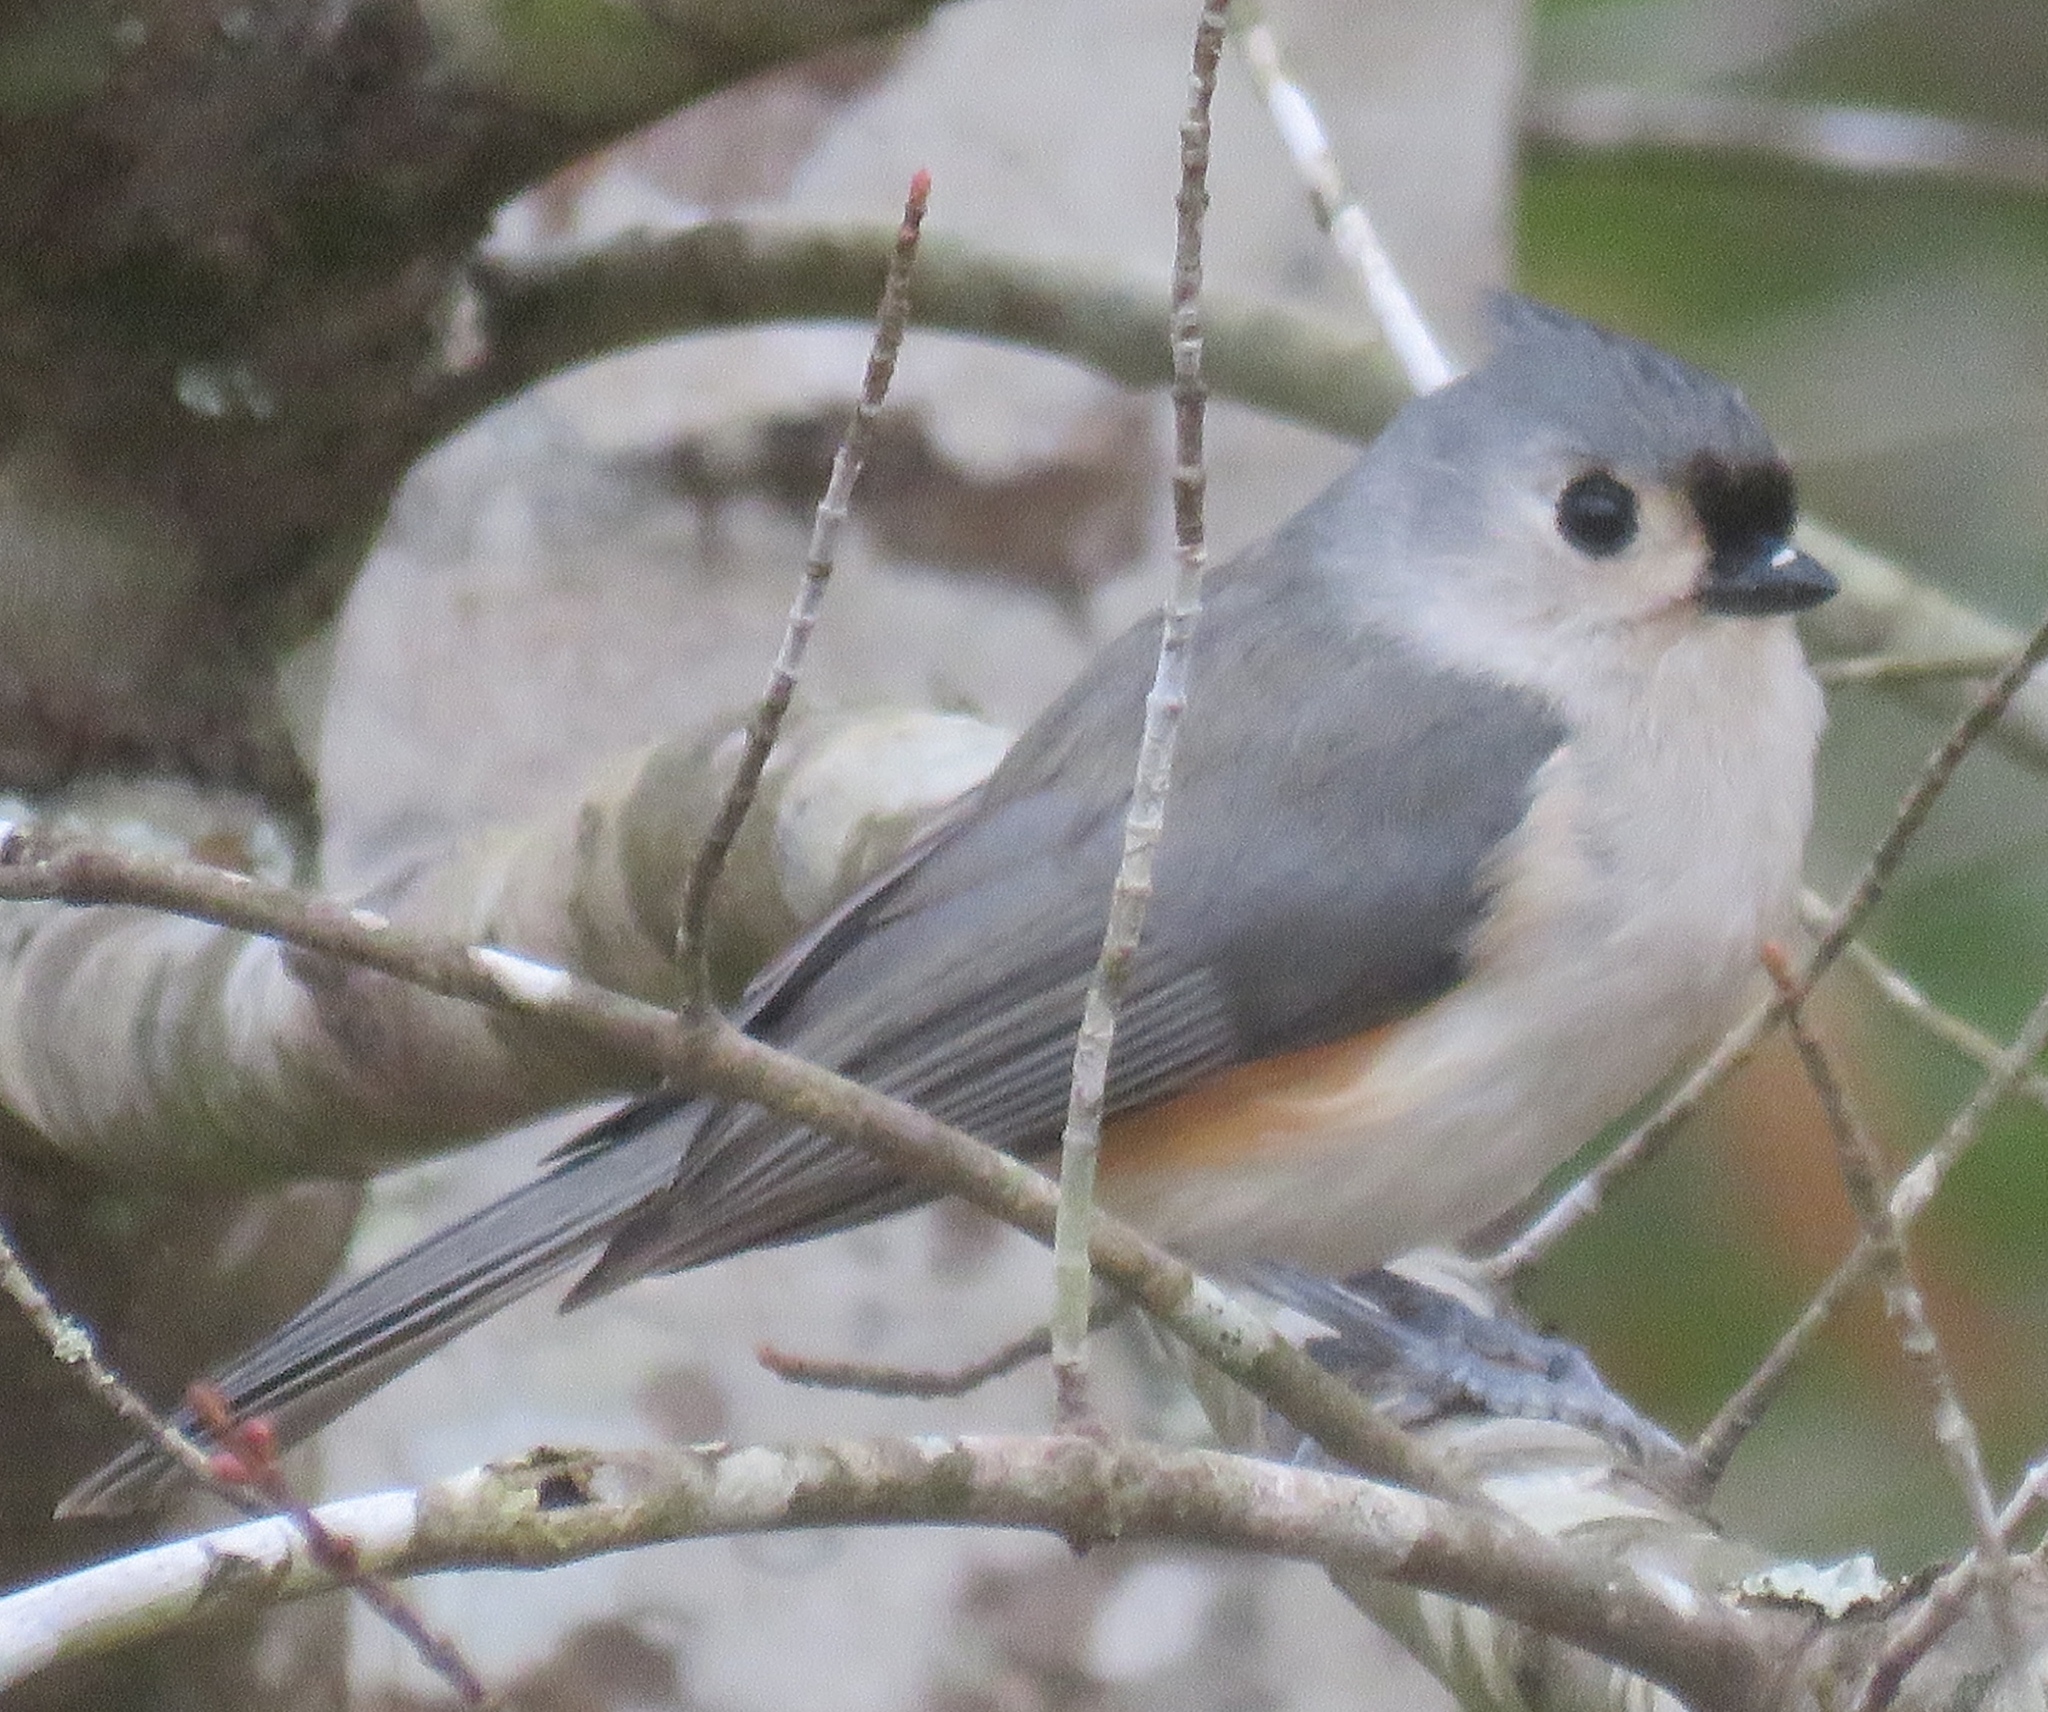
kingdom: Animalia
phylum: Chordata
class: Aves
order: Passeriformes
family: Paridae
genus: Baeolophus
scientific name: Baeolophus bicolor
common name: Tufted titmouse
